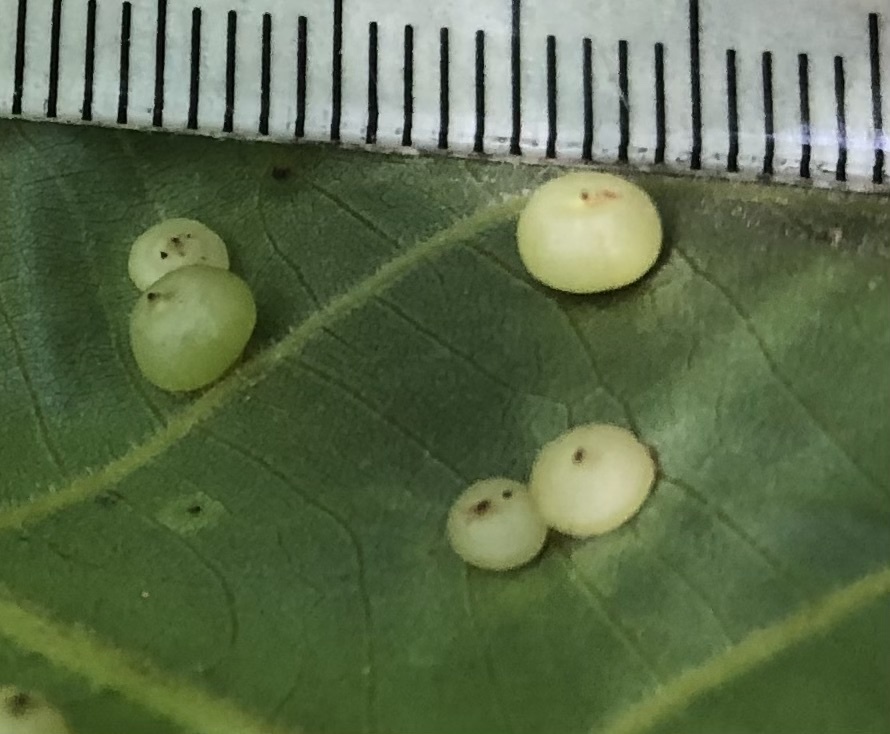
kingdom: Animalia
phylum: Arthropoda
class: Insecta
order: Diptera
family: Cecidomyiidae
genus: Caryomyia
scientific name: Caryomyia inflata
